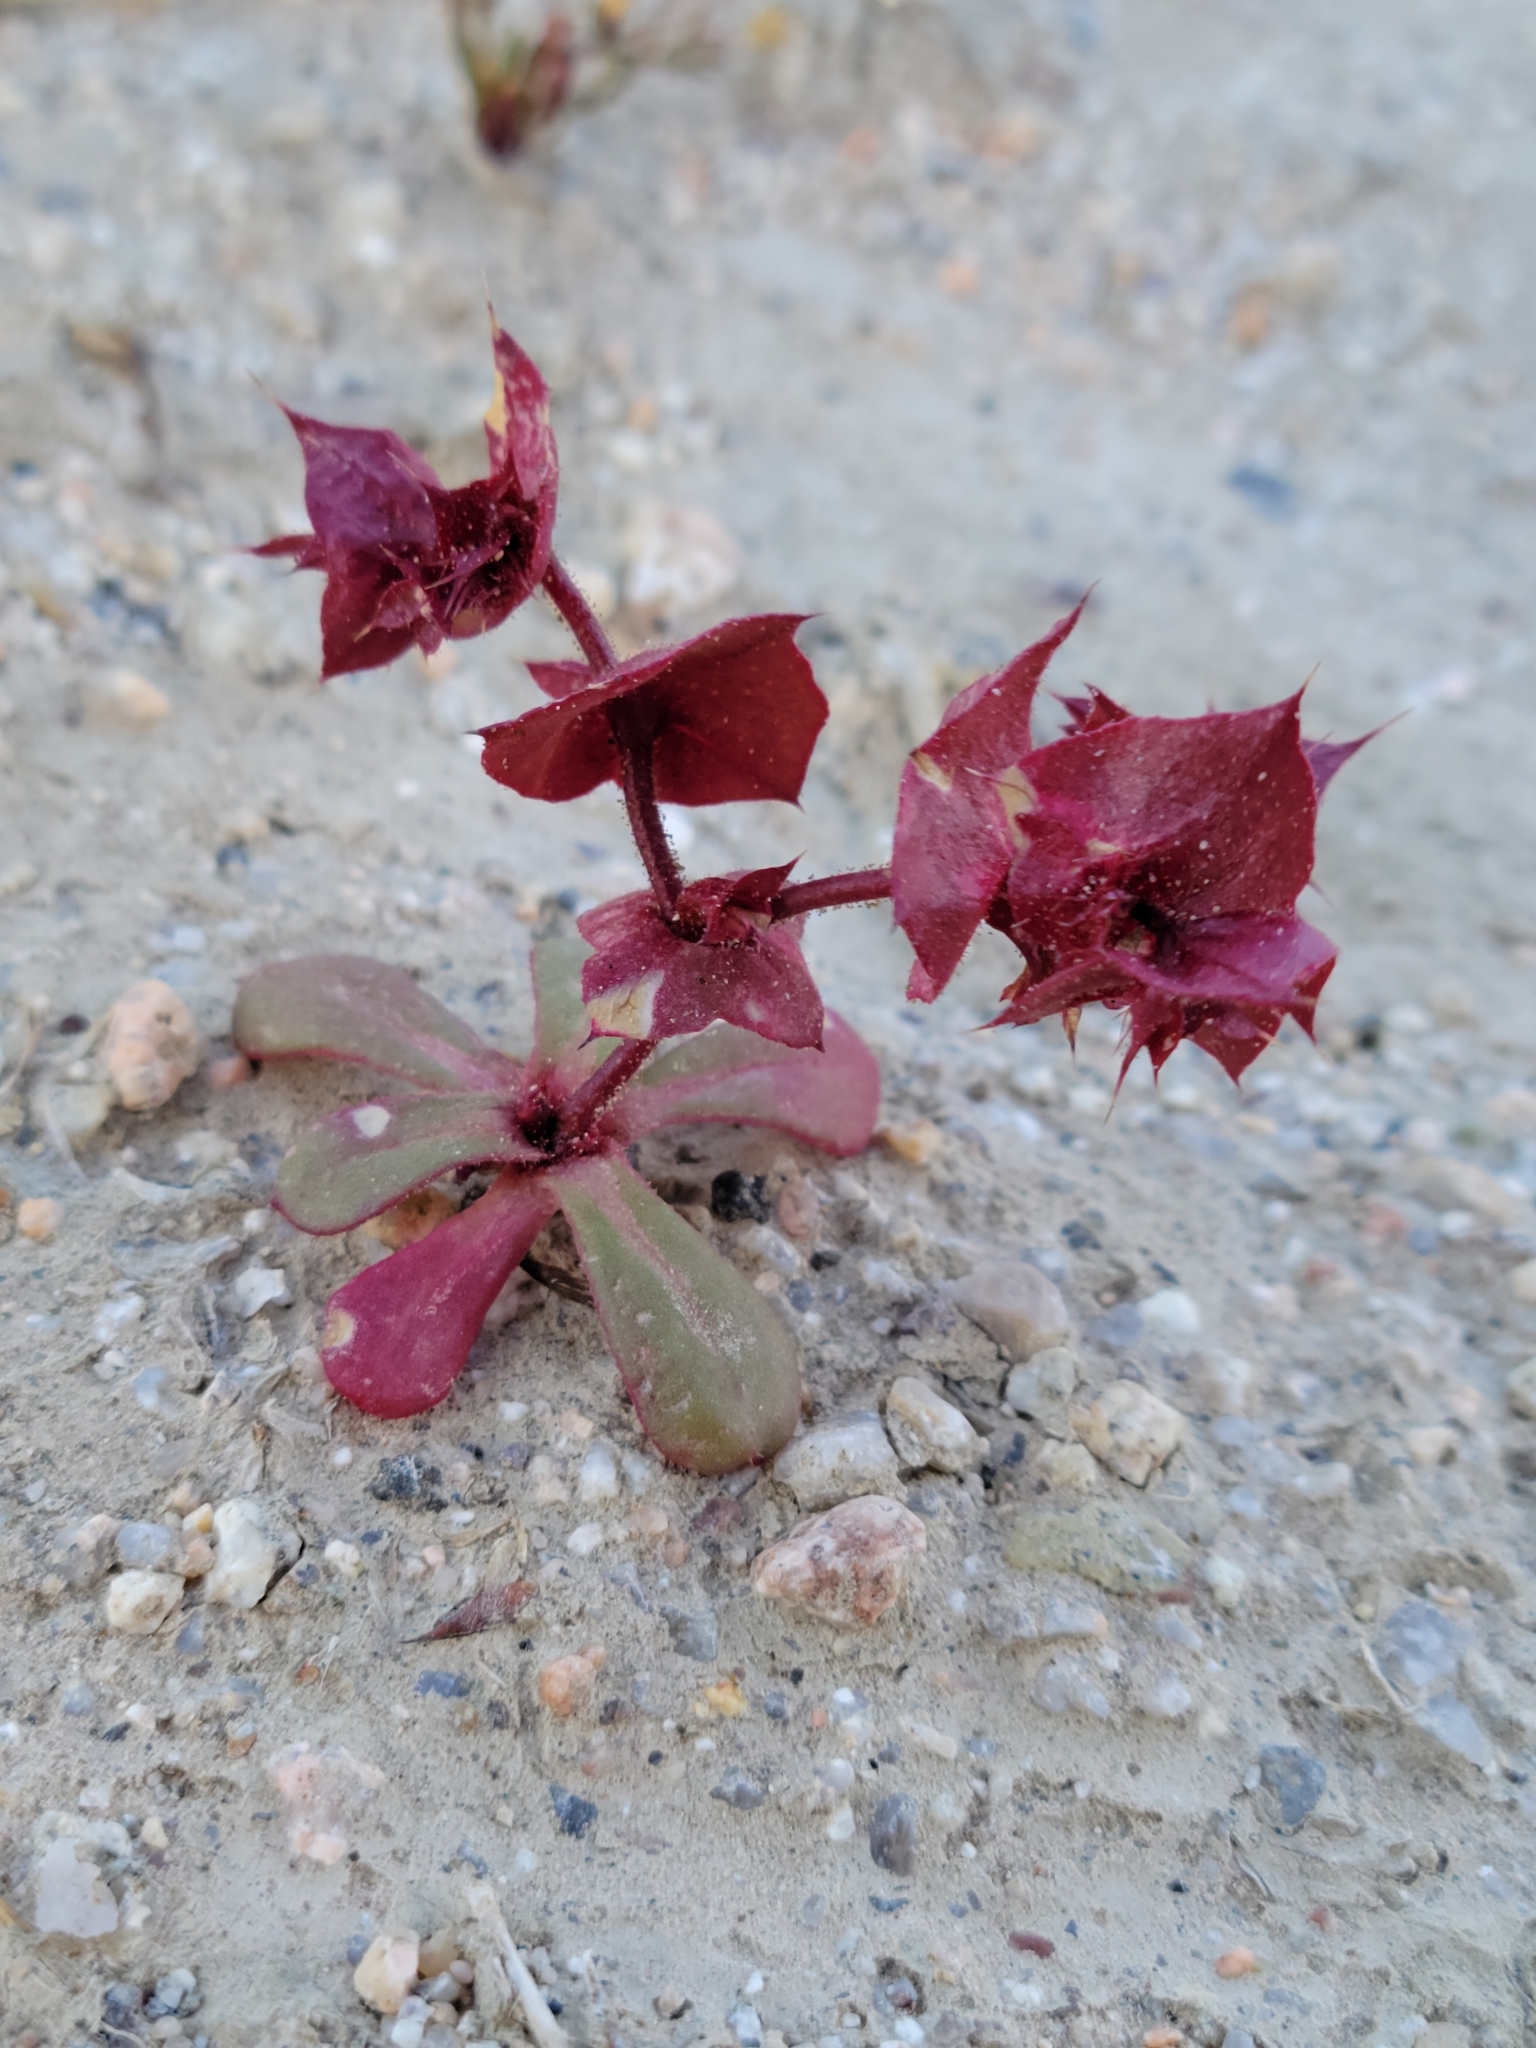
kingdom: Plantae
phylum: Tracheophyta
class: Magnoliopsida
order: Caryophyllales
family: Polygonaceae
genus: Mucronea
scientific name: Mucronea perfoliata
